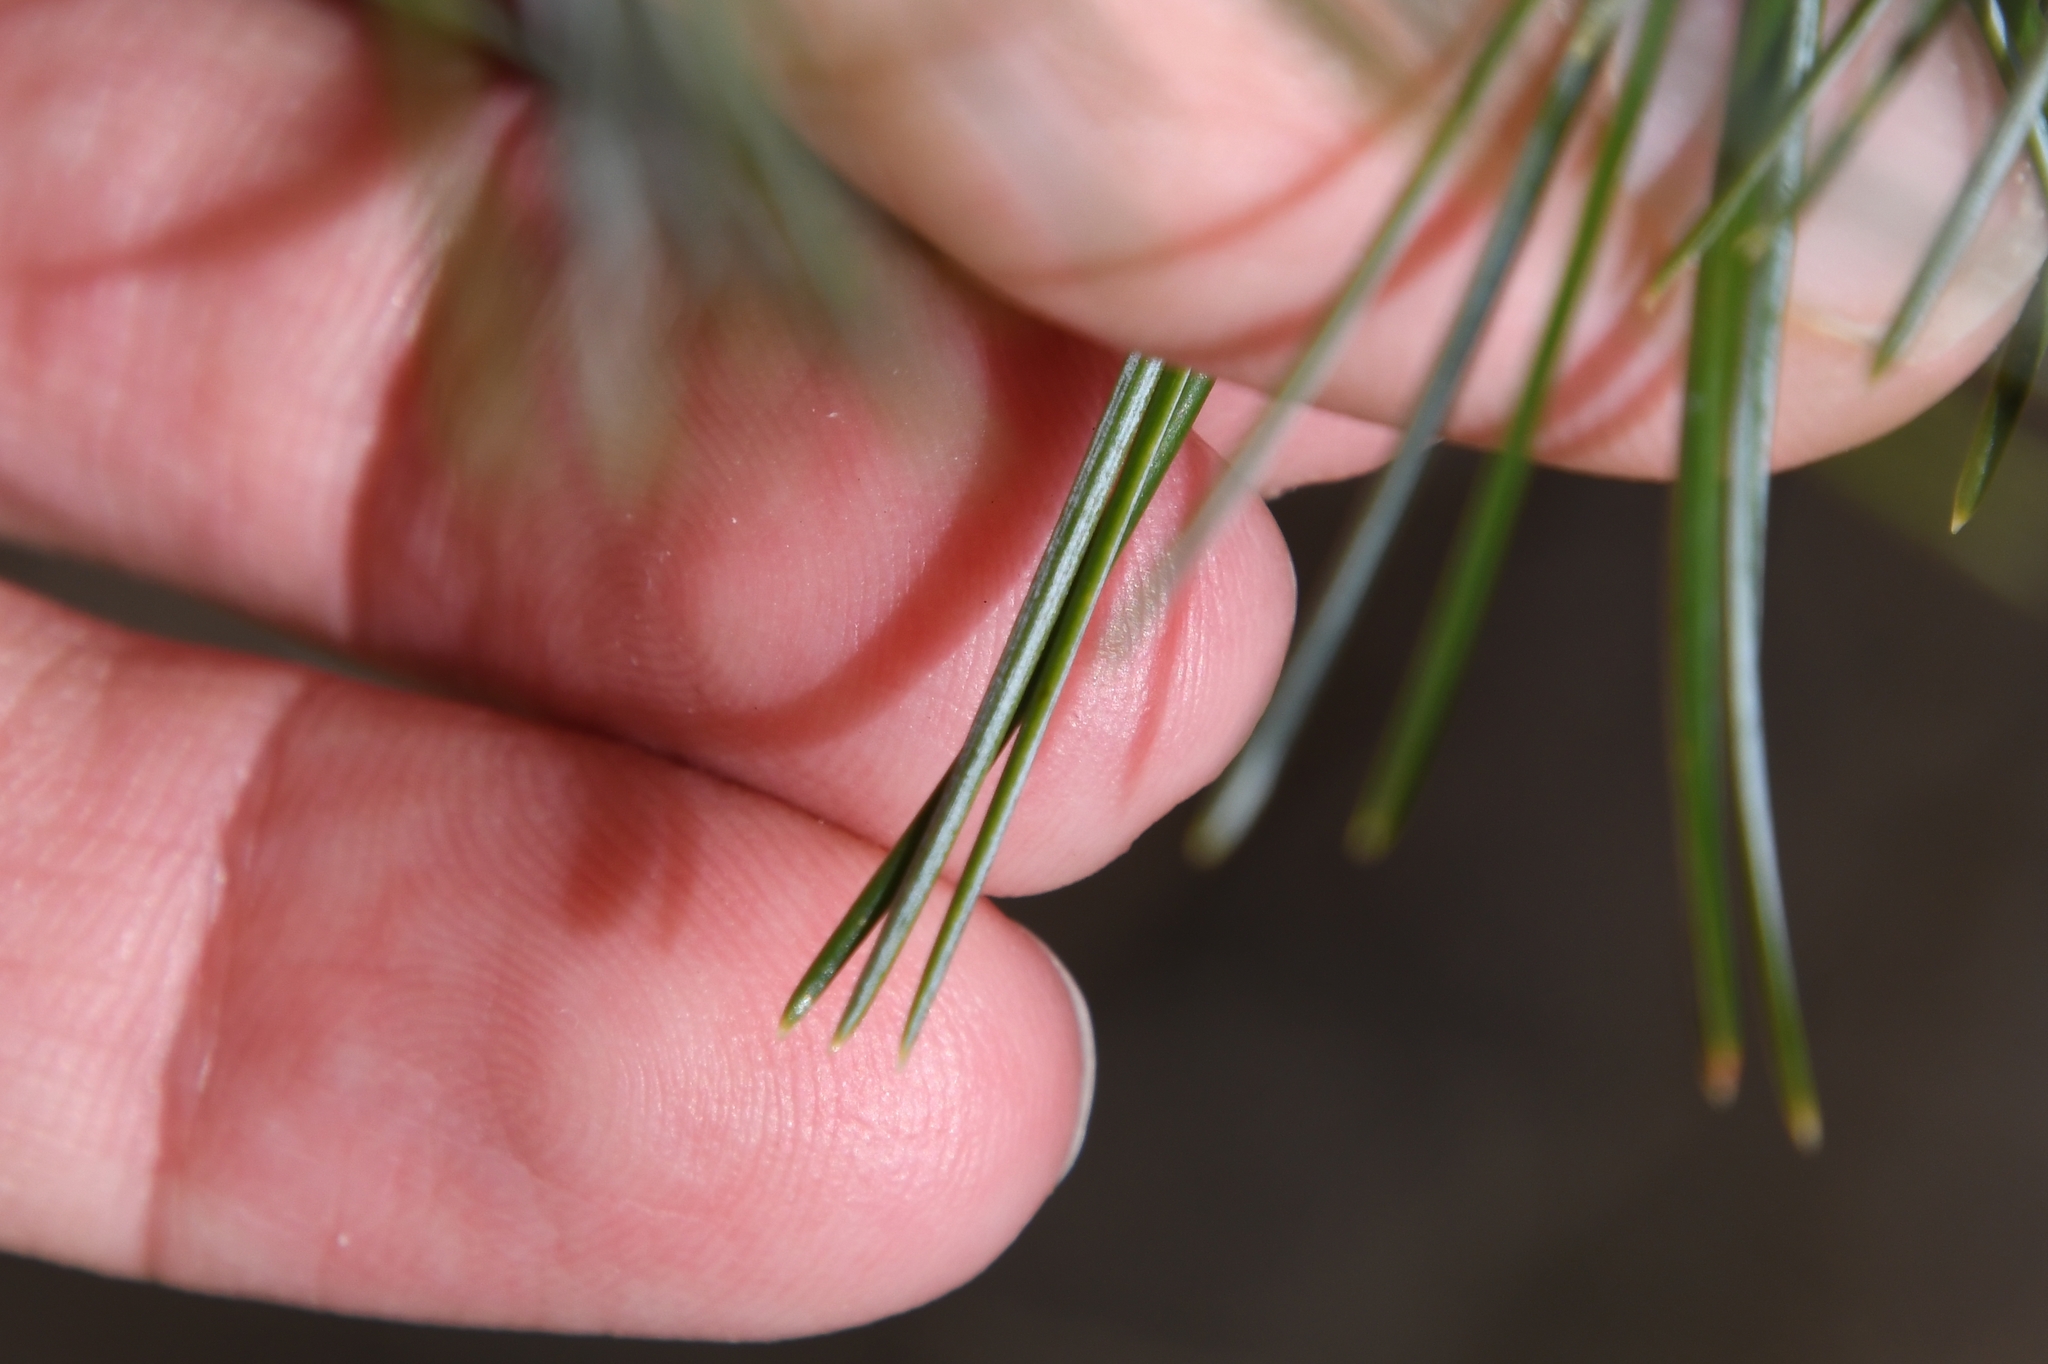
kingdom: Plantae
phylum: Tracheophyta
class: Pinopsida
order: Pinales
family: Pinaceae
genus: Pinus
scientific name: Pinus cembroides
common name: Mexican nut pine
